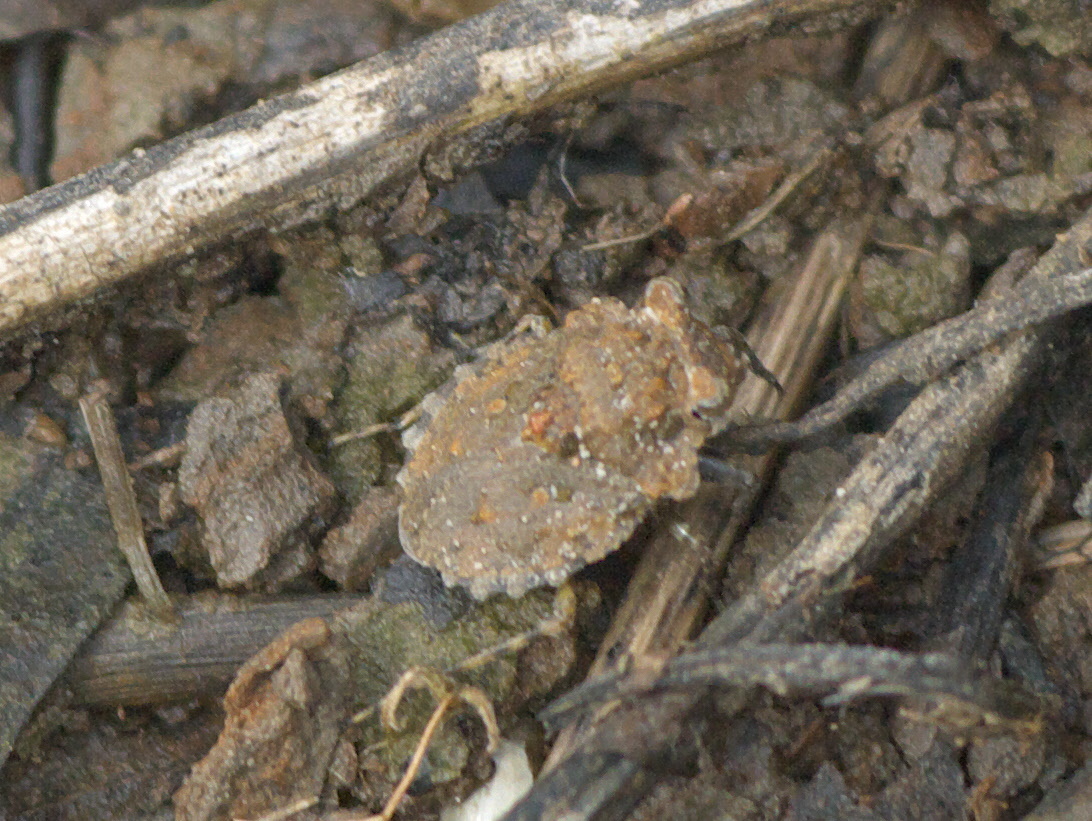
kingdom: Animalia
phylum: Arthropoda
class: Insecta
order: Hemiptera
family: Gelastocoridae
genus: Gelastocoris
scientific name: Gelastocoris oculatus
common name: Toad bug
